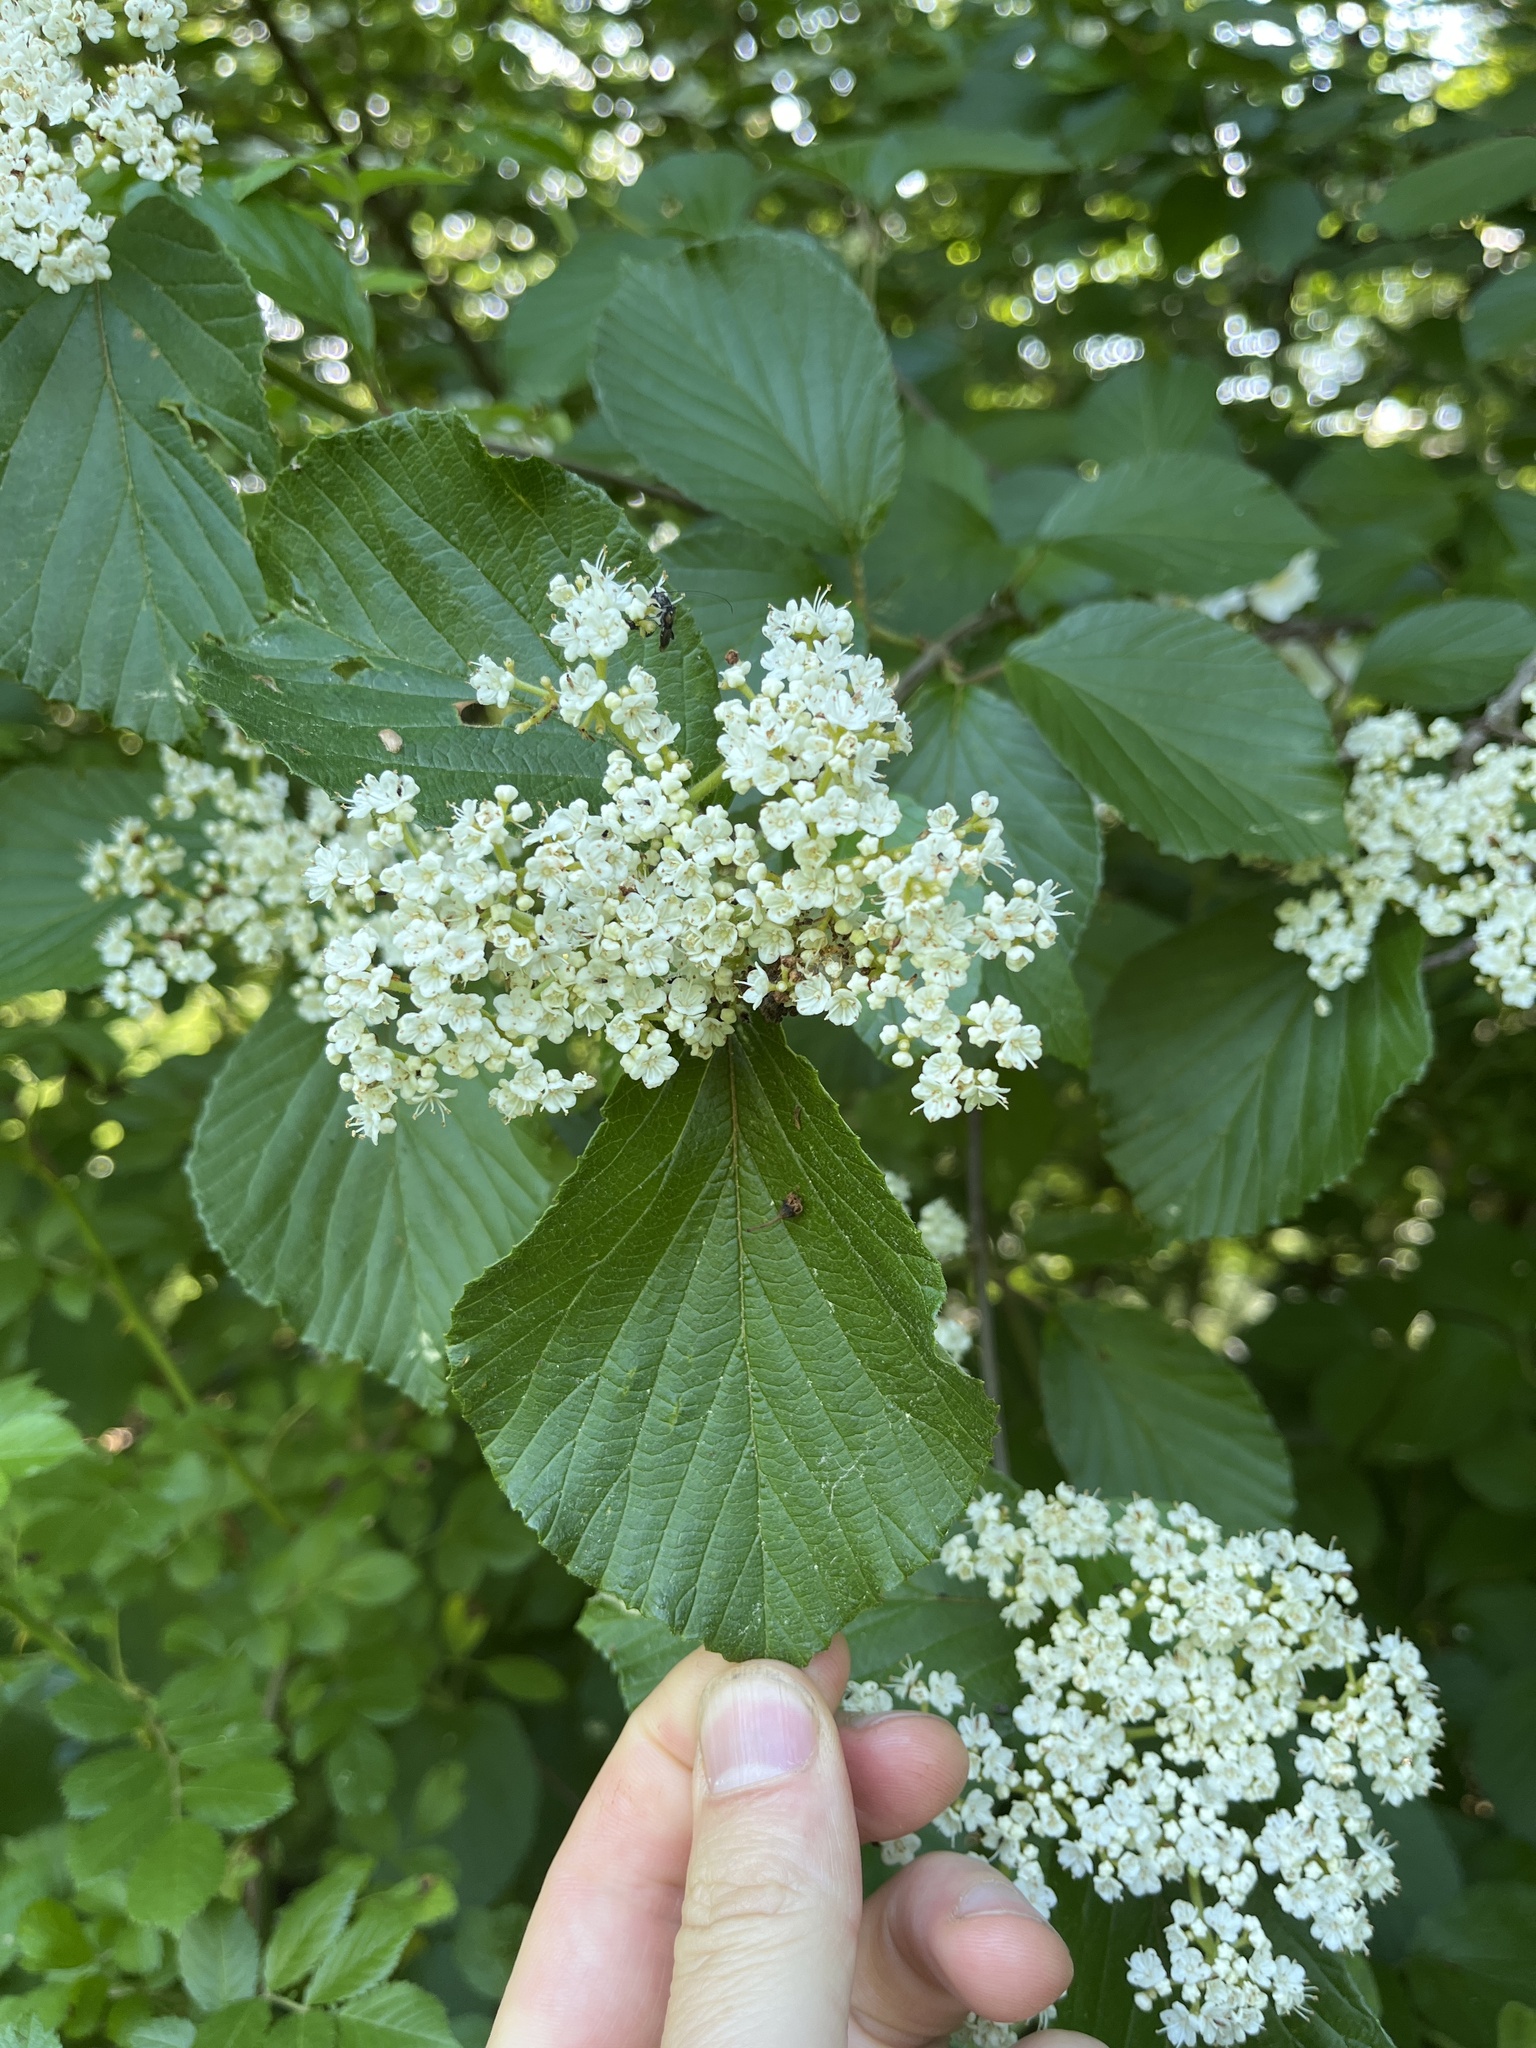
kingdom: Plantae
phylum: Tracheophyta
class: Magnoliopsida
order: Dipsacales
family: Viburnaceae
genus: Viburnum
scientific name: Viburnum dilatatum
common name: Linden arrowwood
